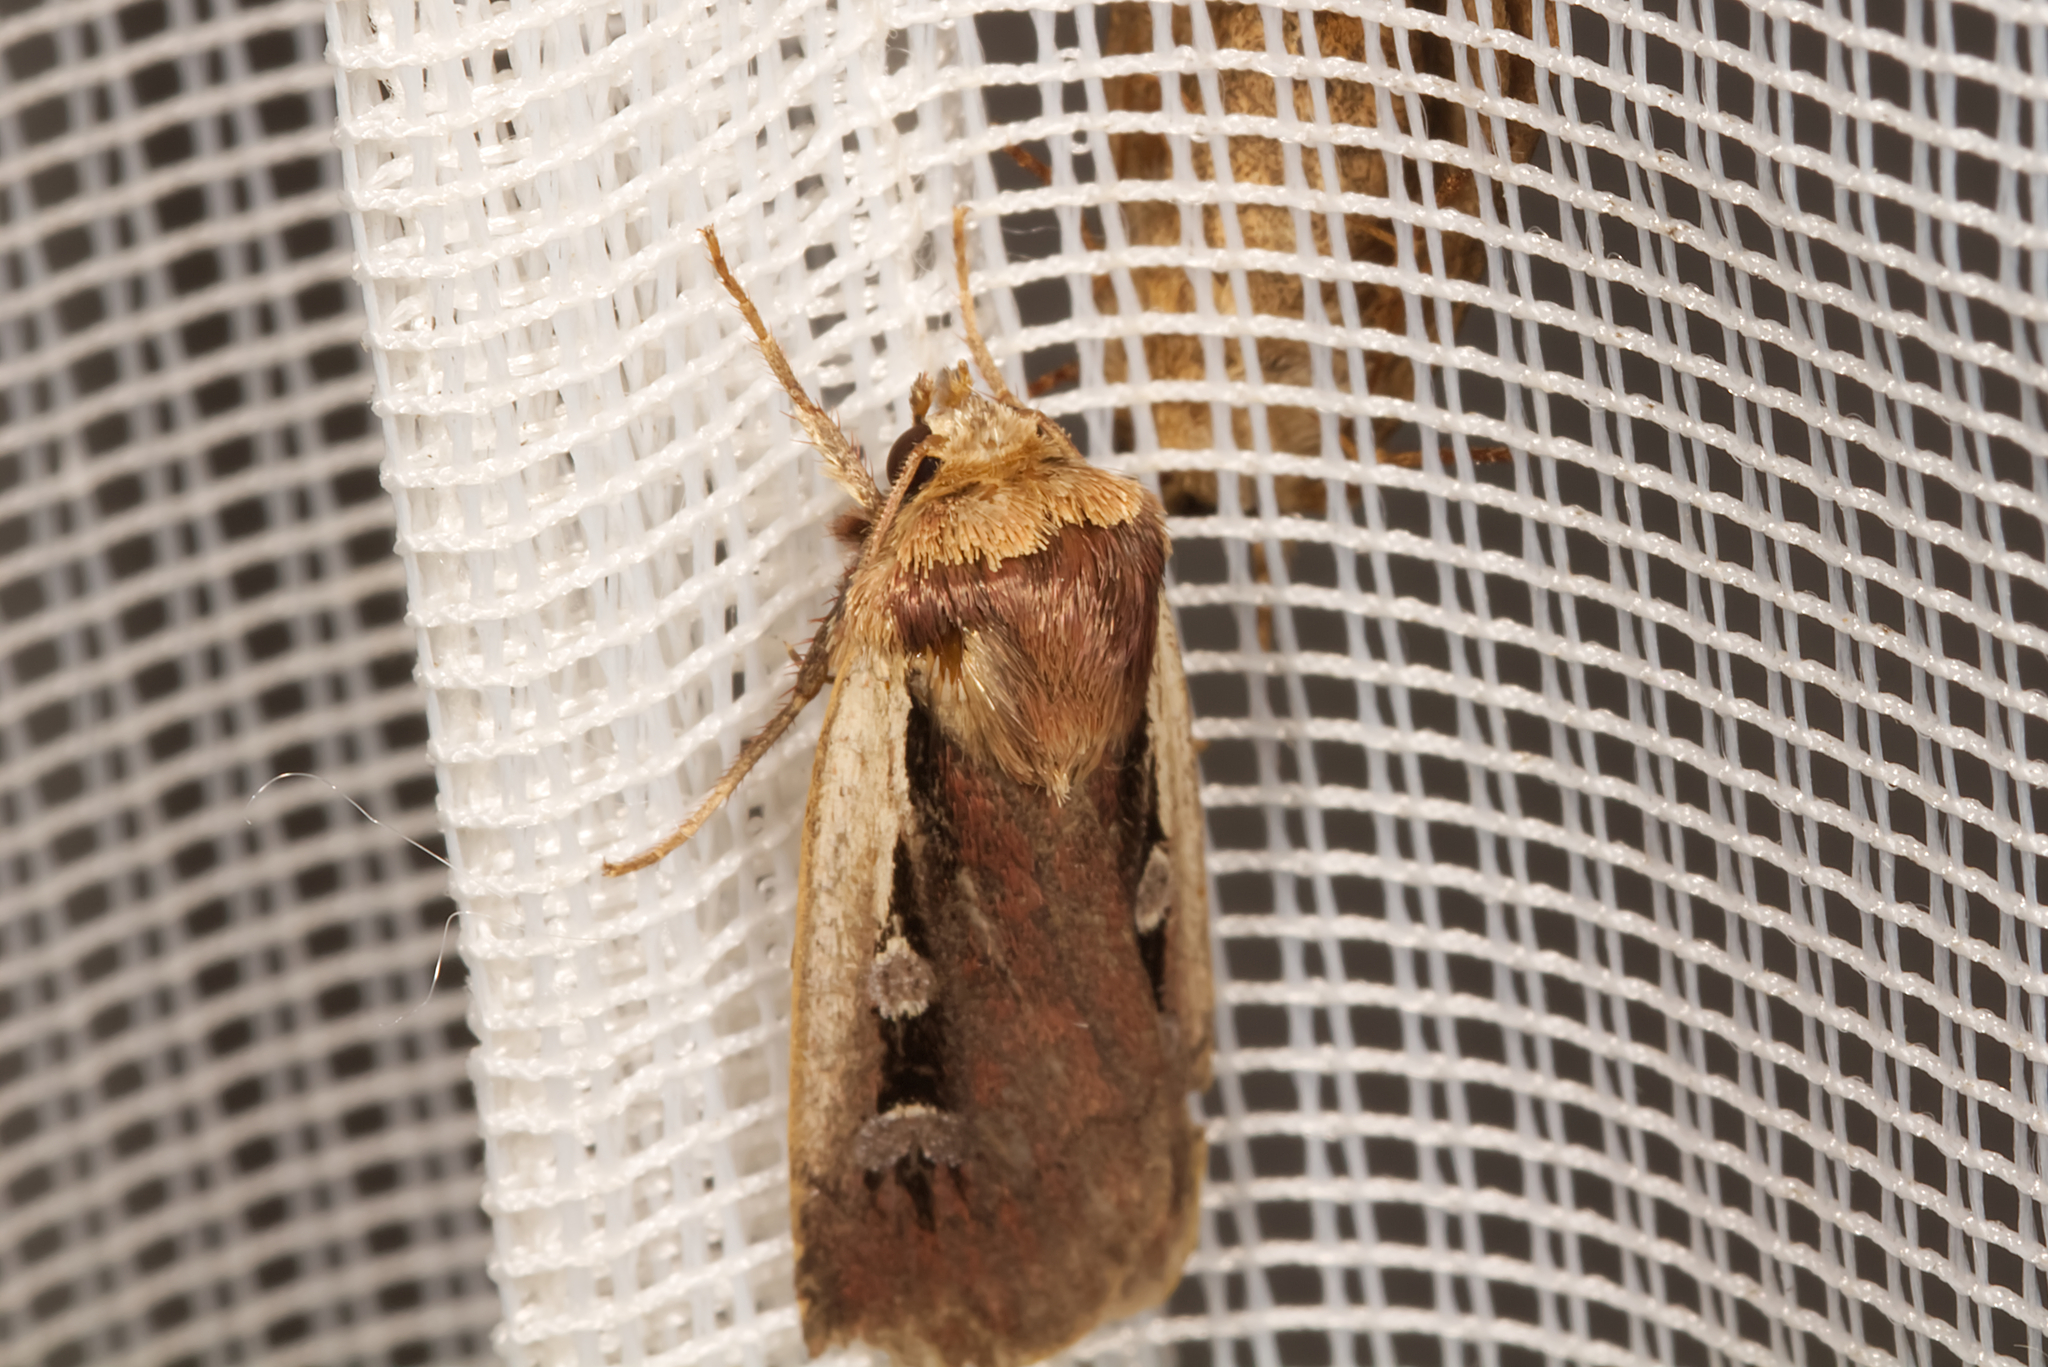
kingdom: Animalia
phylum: Arthropoda
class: Insecta
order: Lepidoptera
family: Noctuidae
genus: Ochropleura
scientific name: Ochropleura plecta
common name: Flame shoulder
